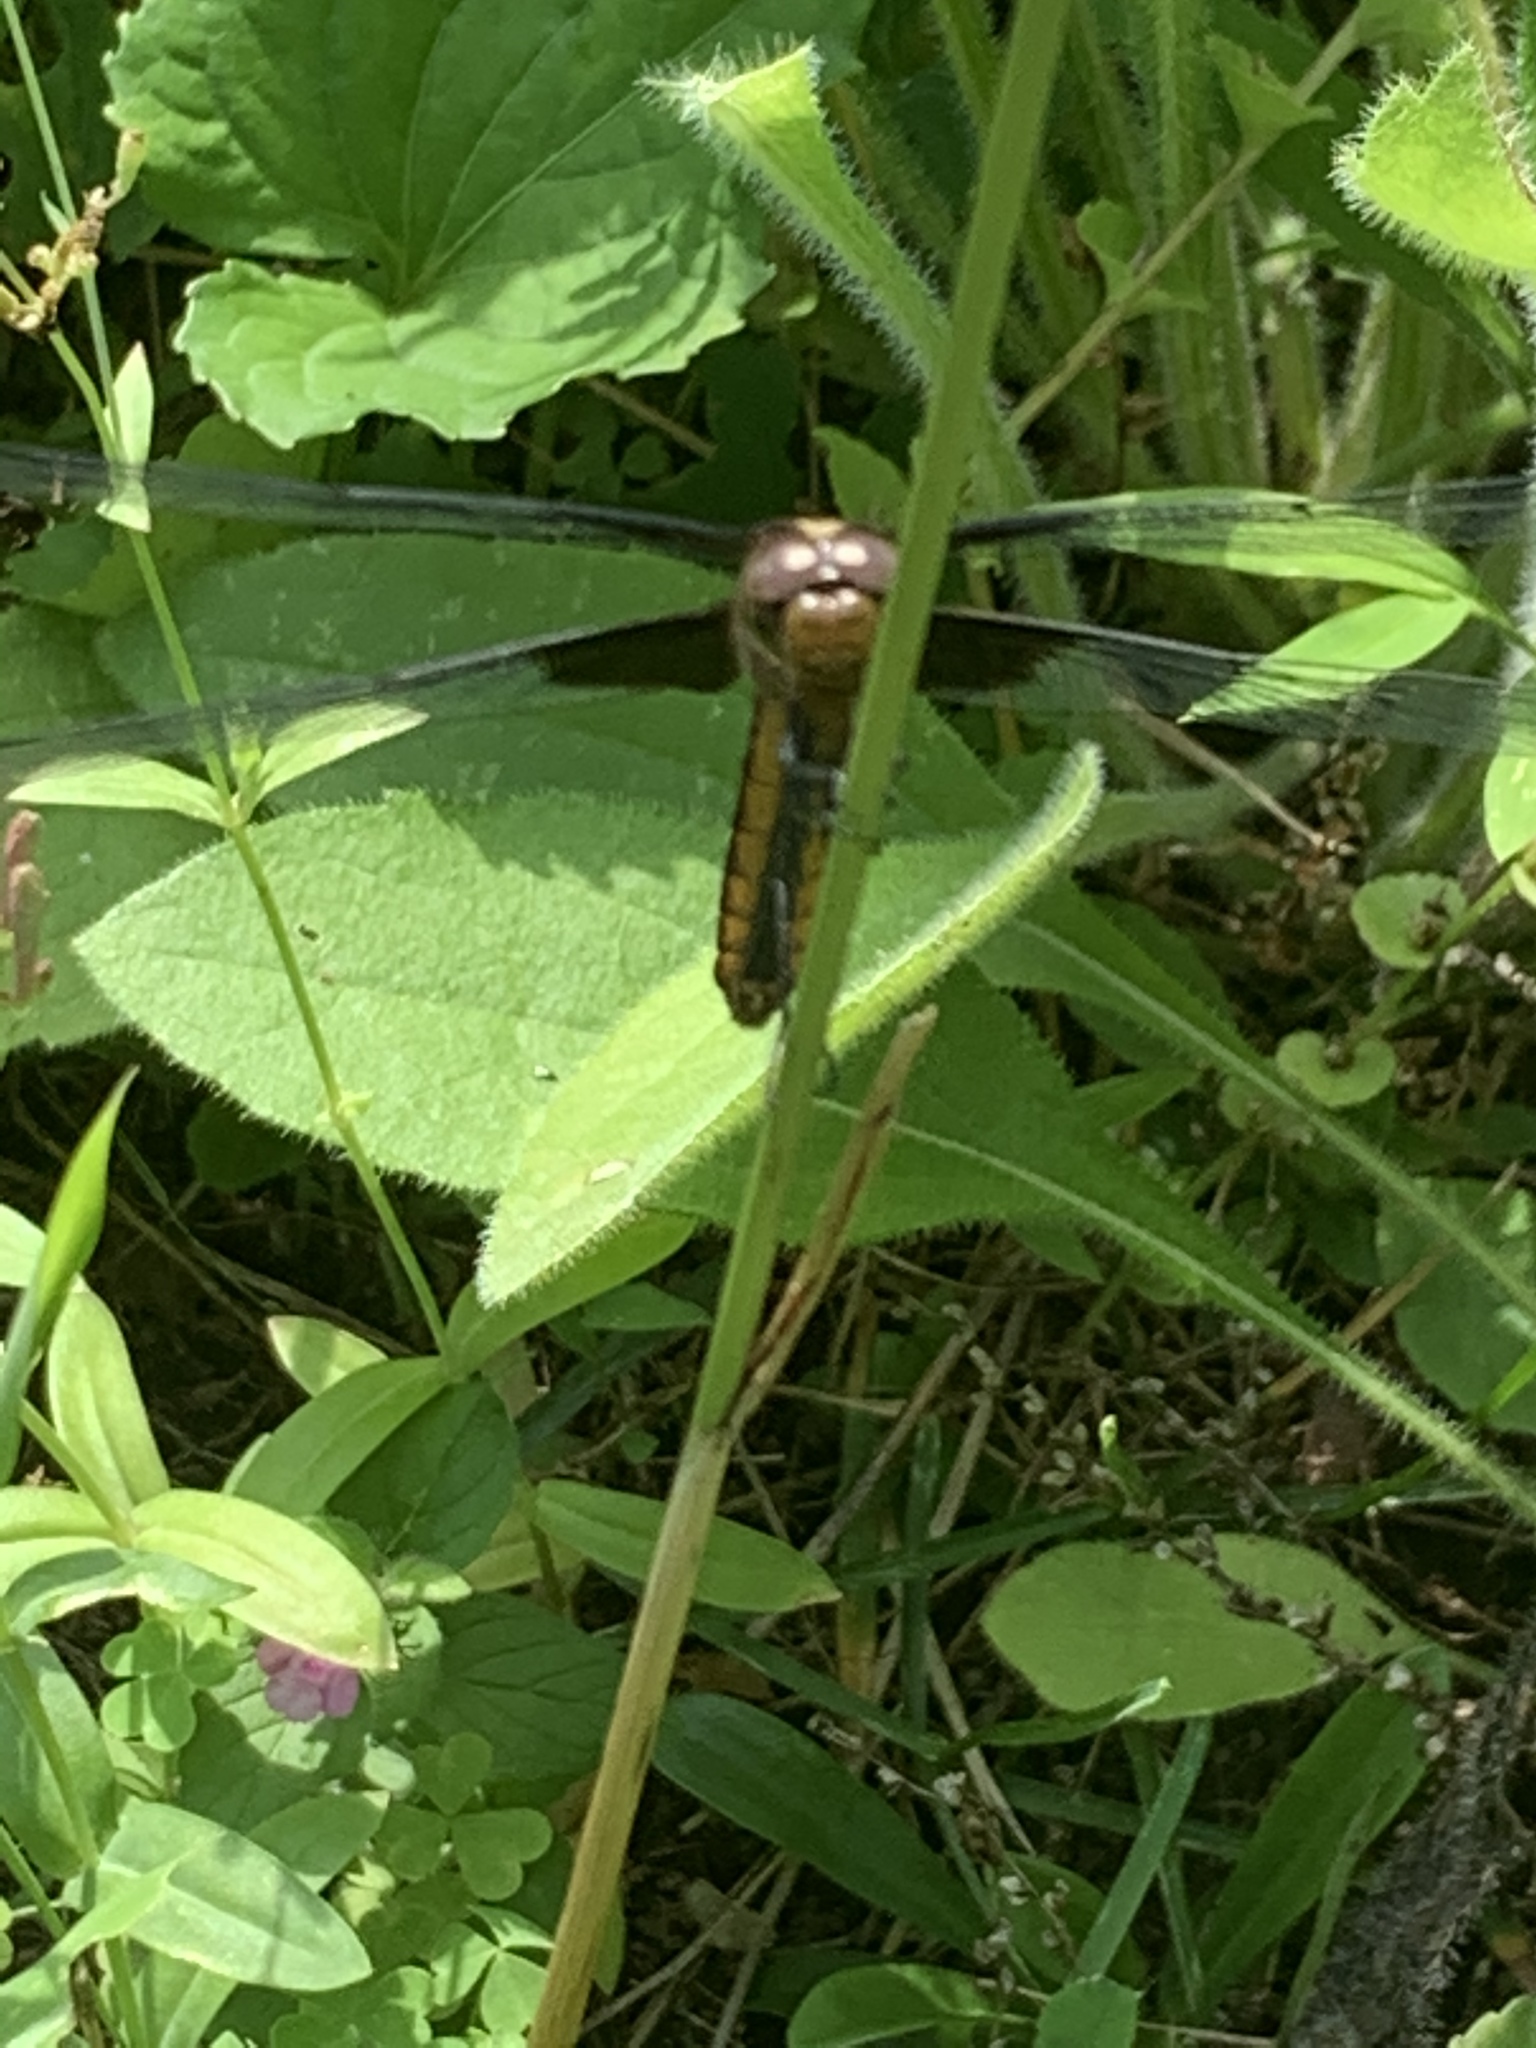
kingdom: Animalia
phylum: Arthropoda
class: Insecta
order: Odonata
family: Libellulidae
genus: Libellula
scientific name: Libellula luctuosa
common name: Widow skimmer
